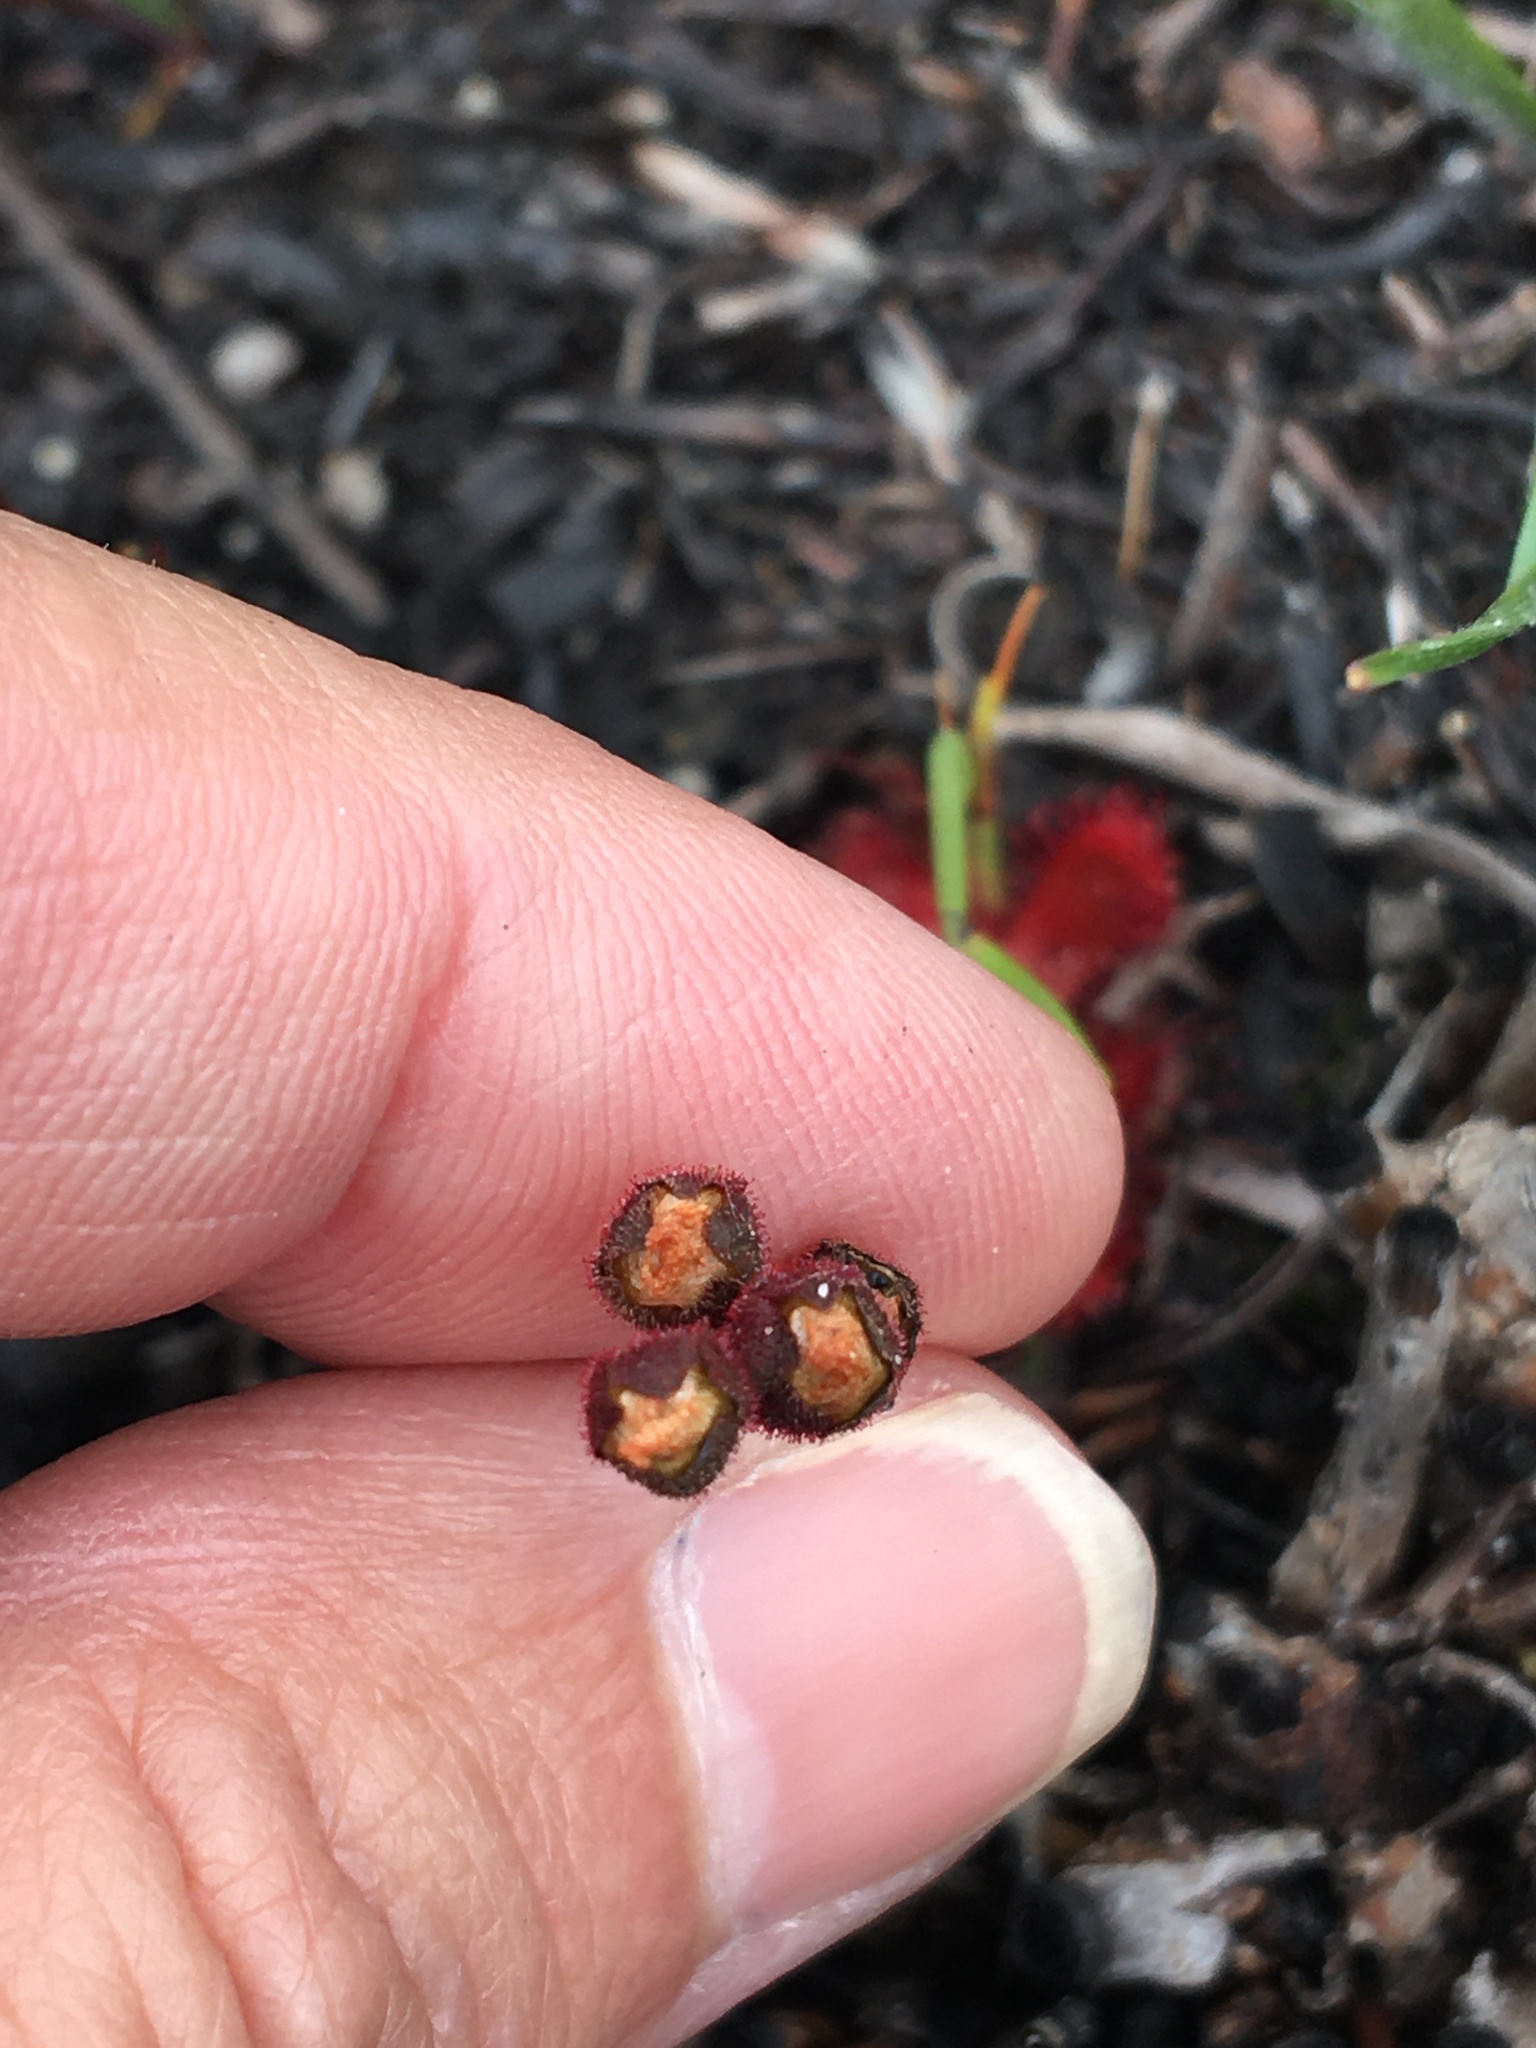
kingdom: Plantae
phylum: Tracheophyta
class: Magnoliopsida
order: Caryophyllales
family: Droseraceae
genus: Drosera
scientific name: Drosera trinervia
